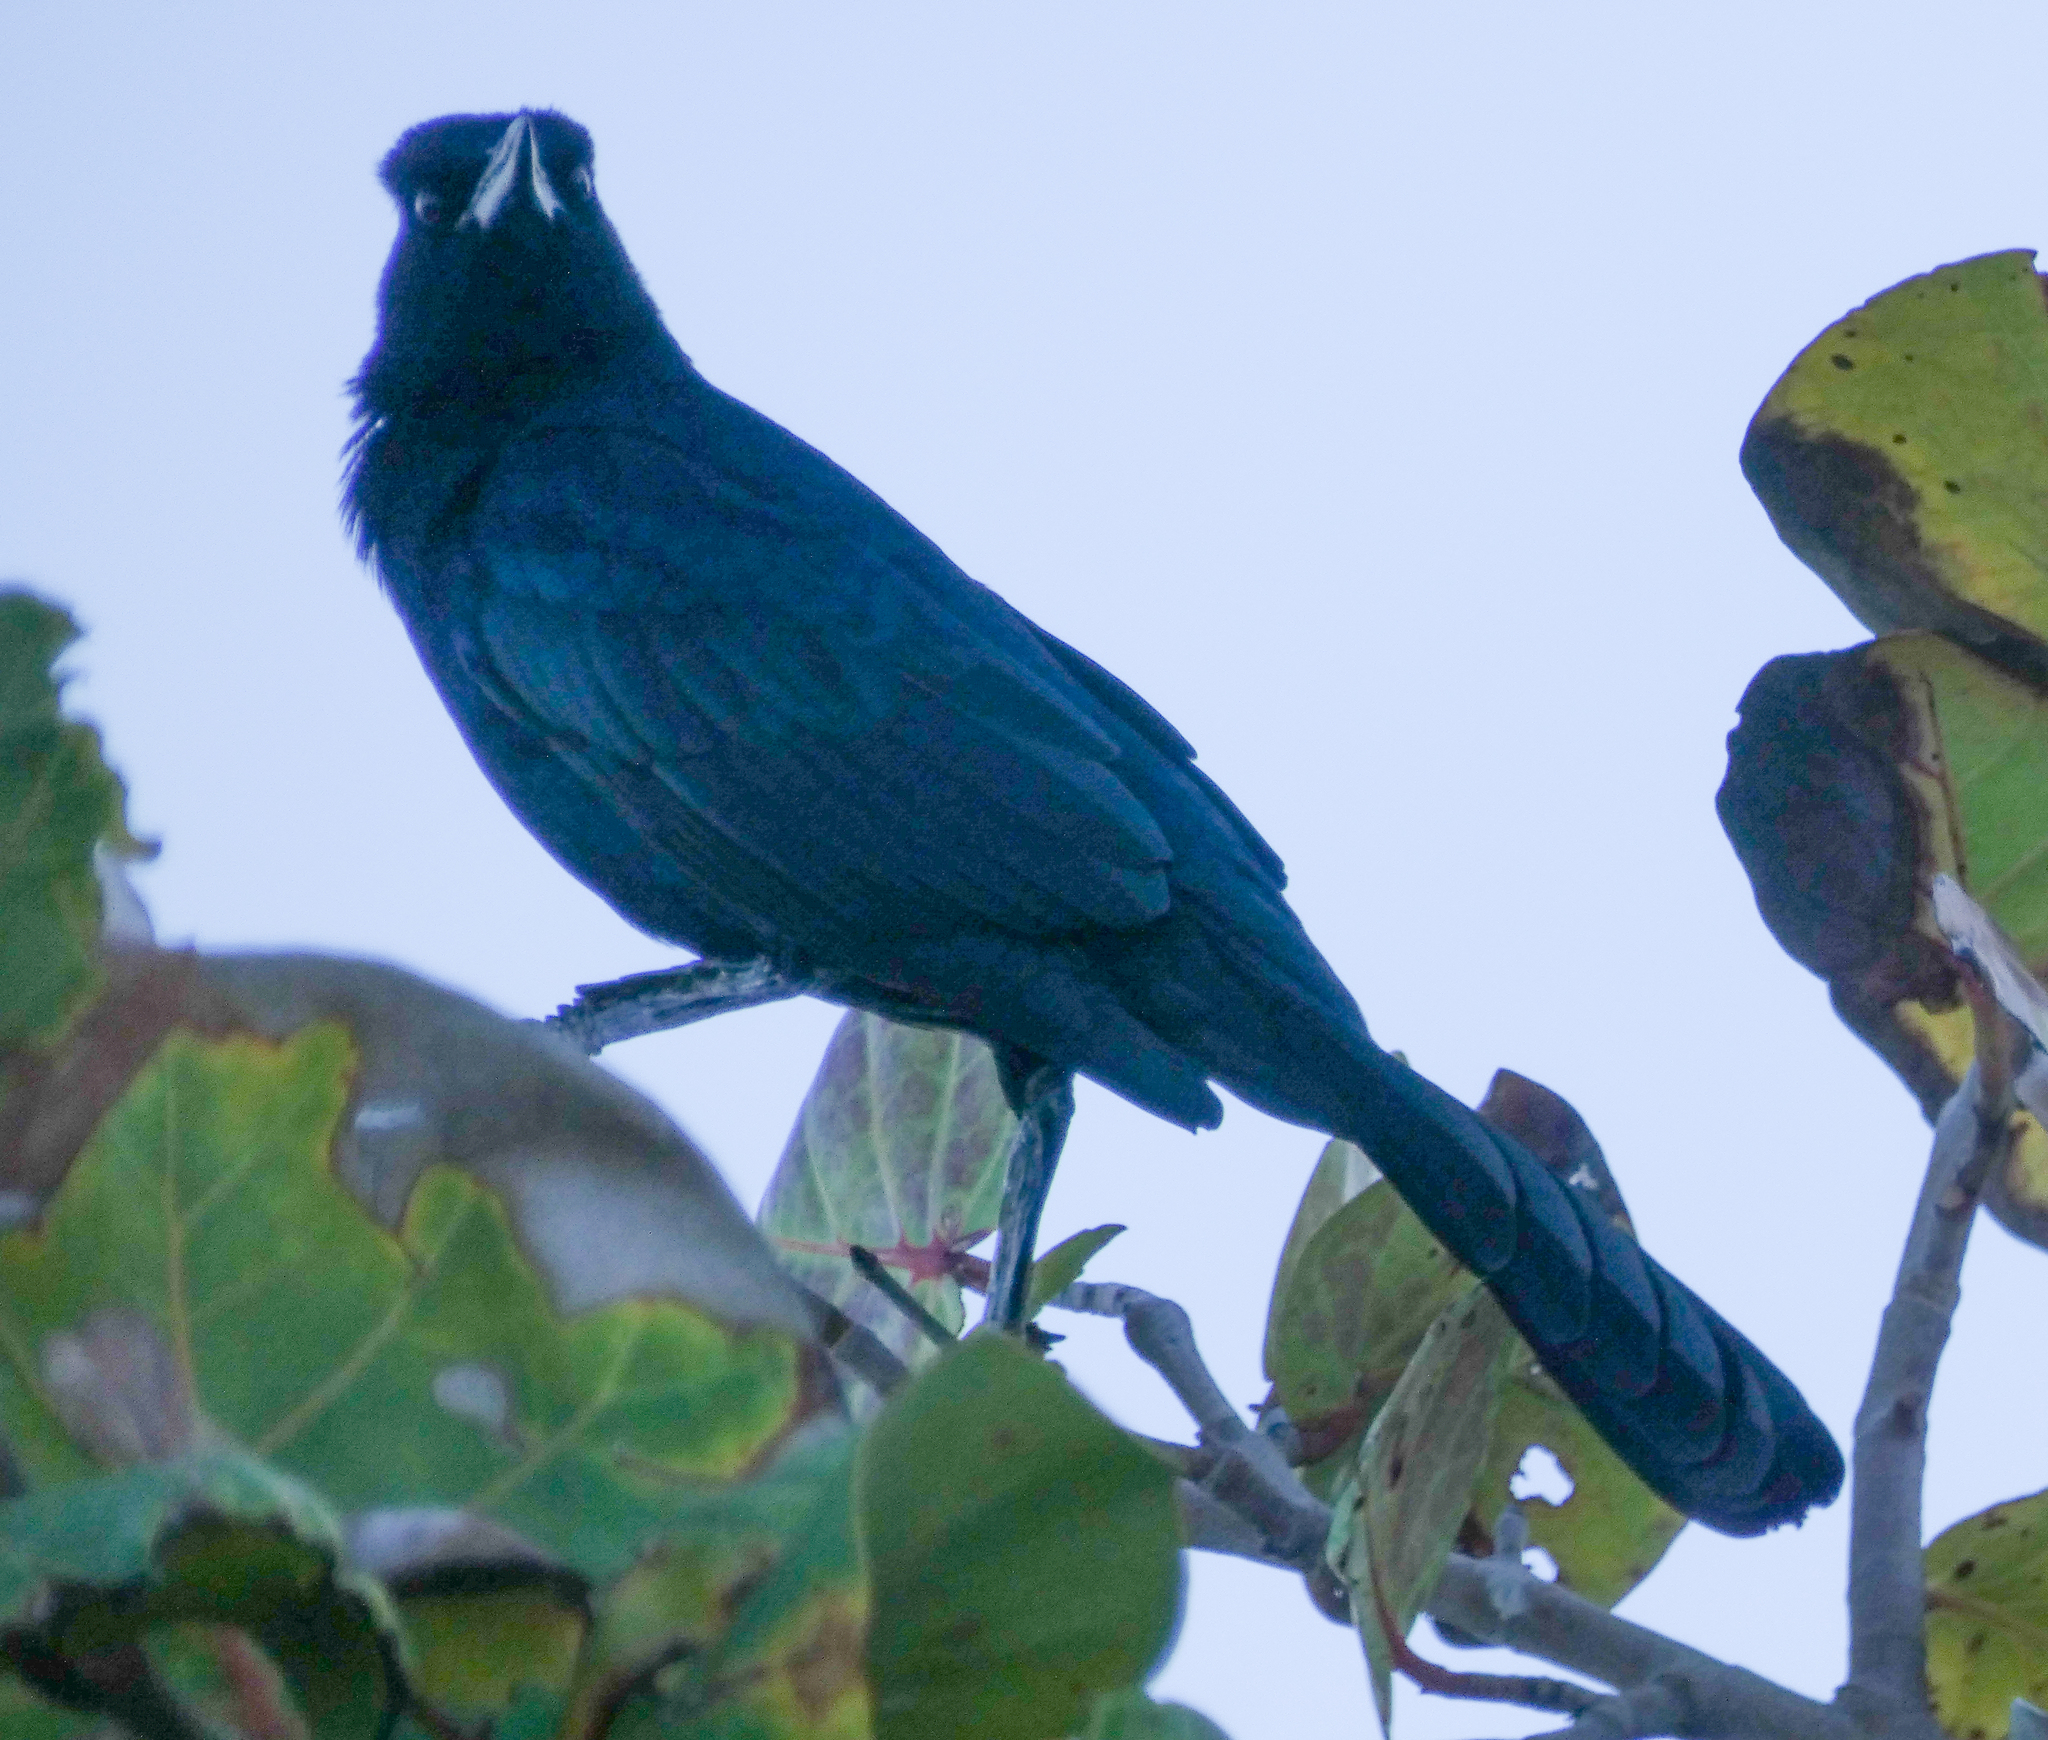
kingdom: Animalia
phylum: Chordata
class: Aves
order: Passeriformes
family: Icteridae
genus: Quiscalus
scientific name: Quiscalus major
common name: Boat-tailed grackle
